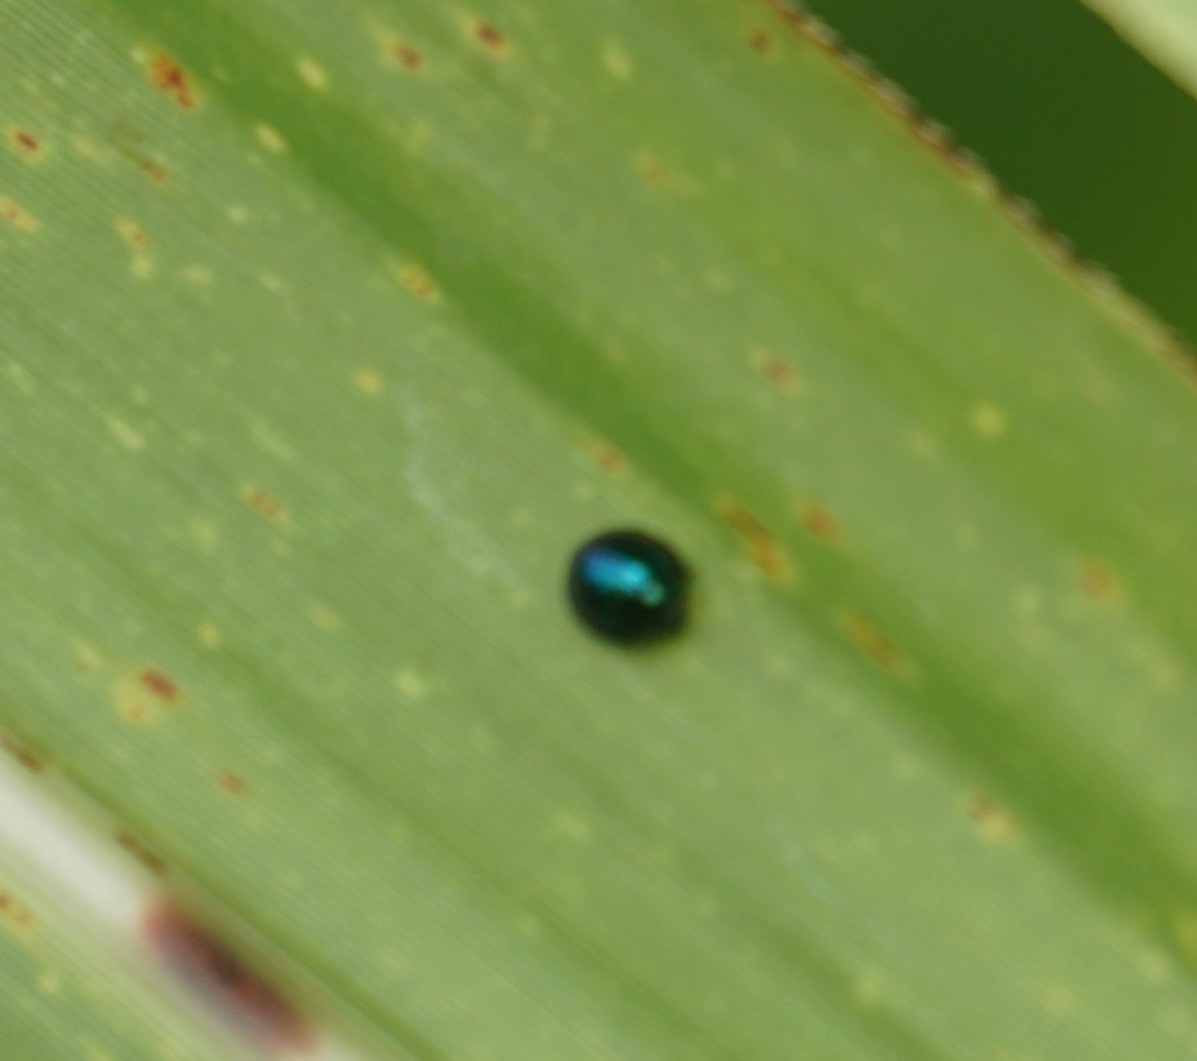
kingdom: Animalia
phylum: Arthropoda
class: Insecta
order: Coleoptera
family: Coccinellidae
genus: Halmus
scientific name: Halmus chalybeus
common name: Steel blue ladybird beetle
